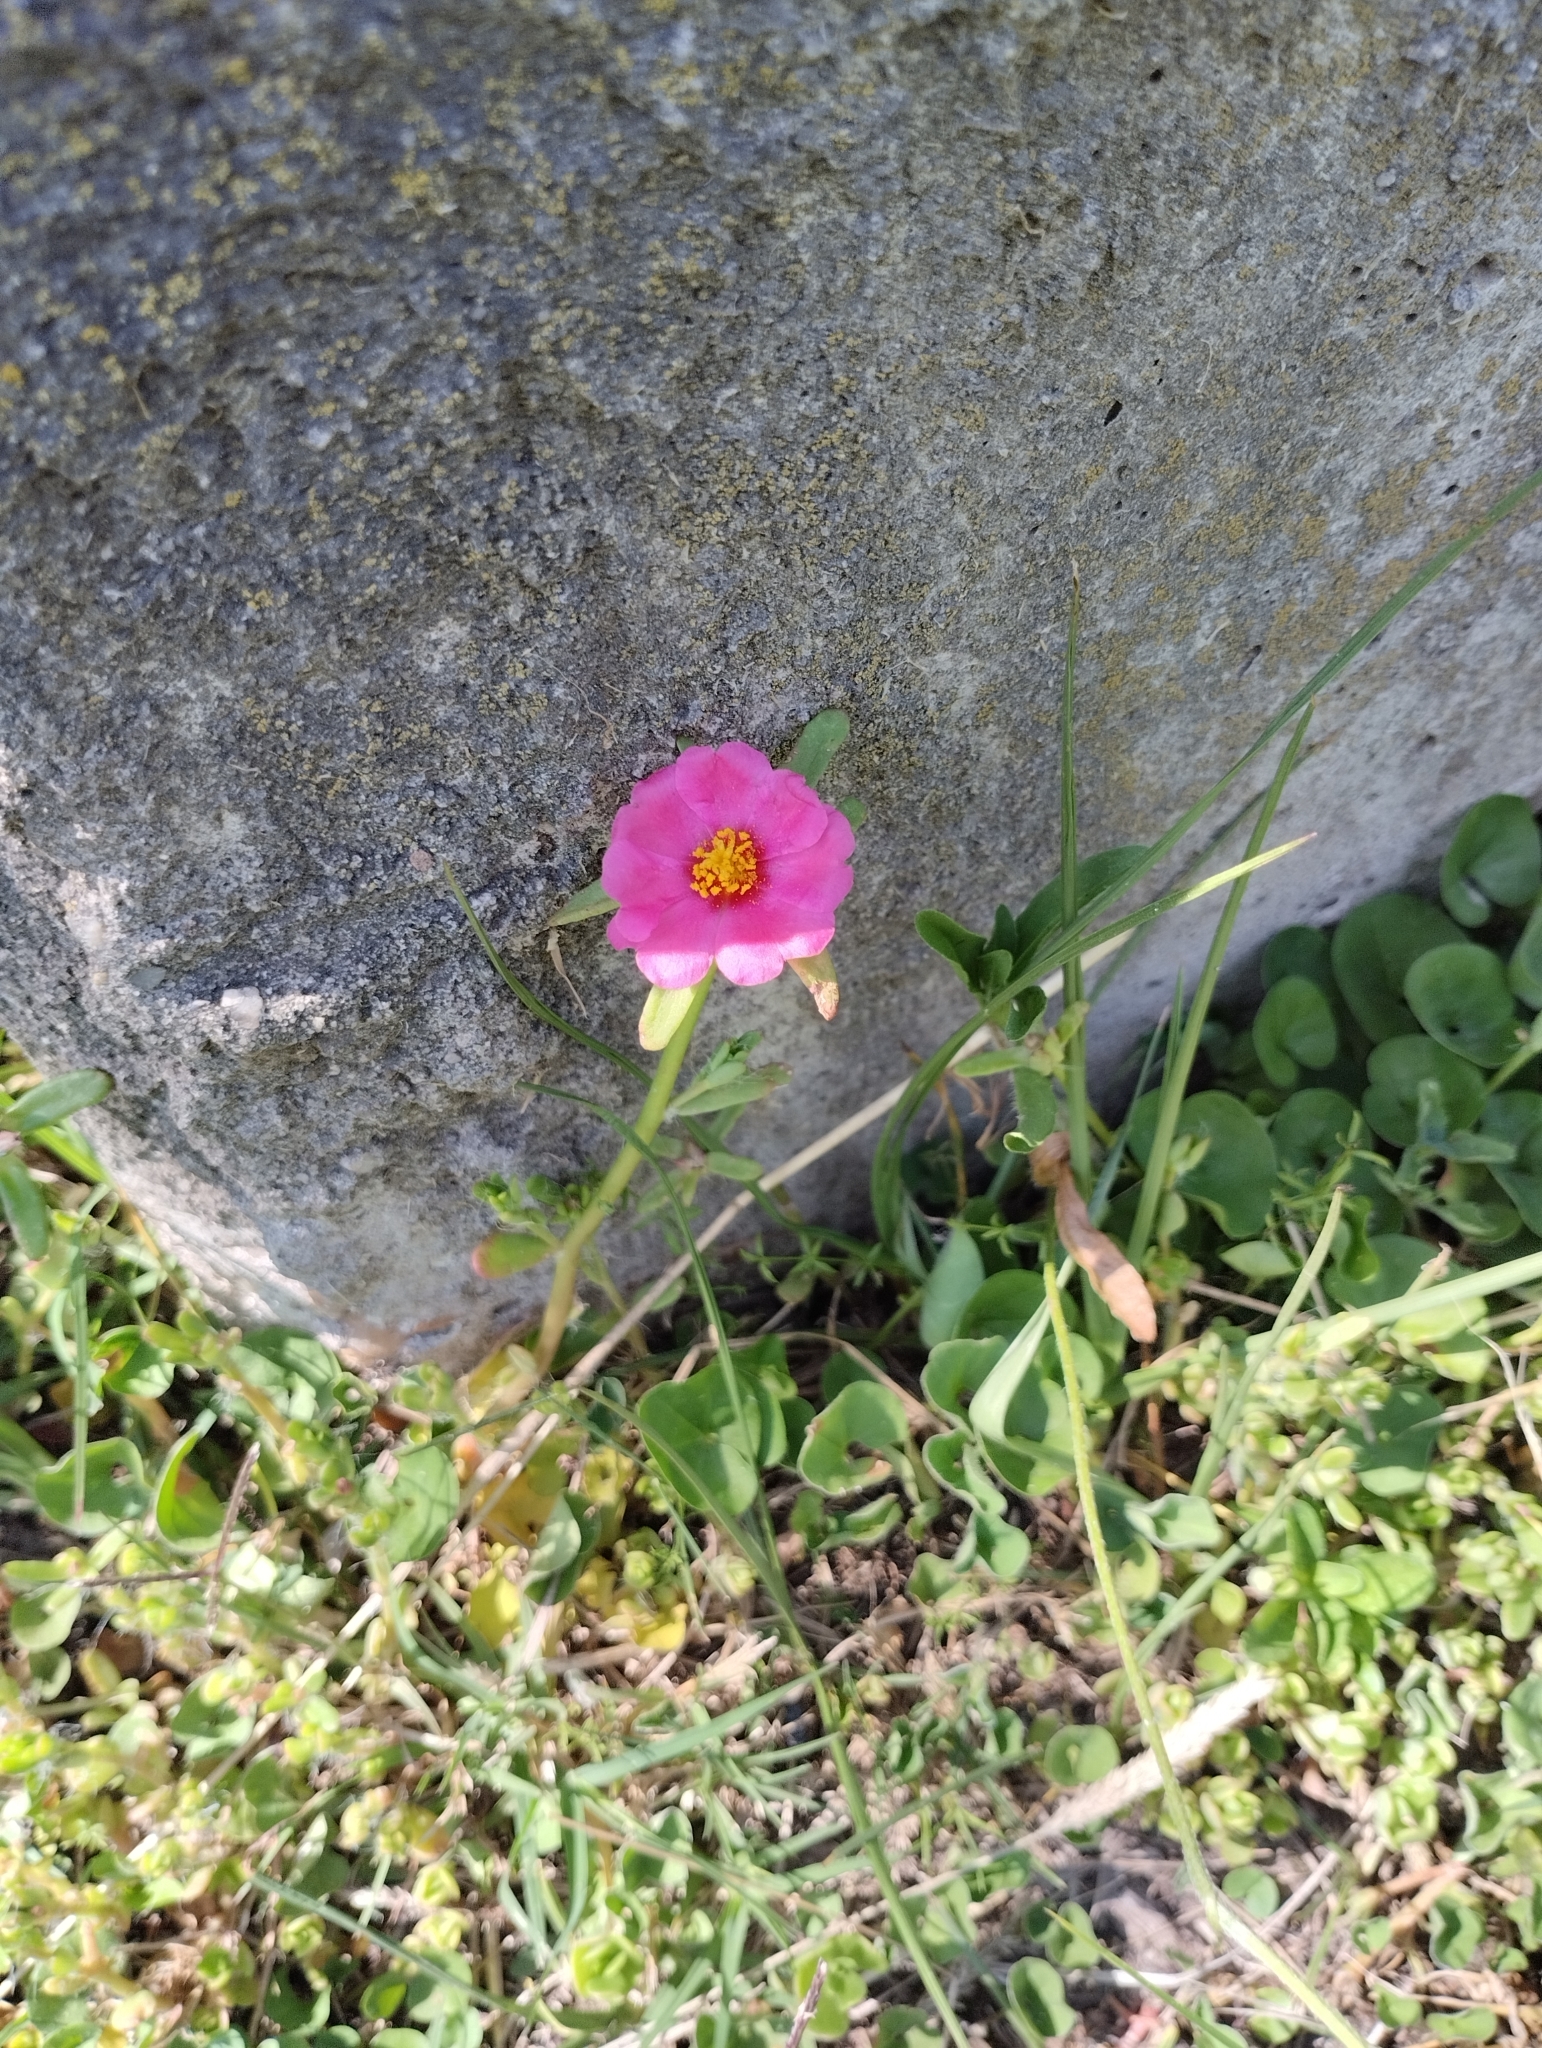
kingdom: Plantae
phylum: Tracheophyta
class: Magnoliopsida
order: Caryophyllales
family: Portulacaceae
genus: Portulaca
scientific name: Portulaca cryptopetala
